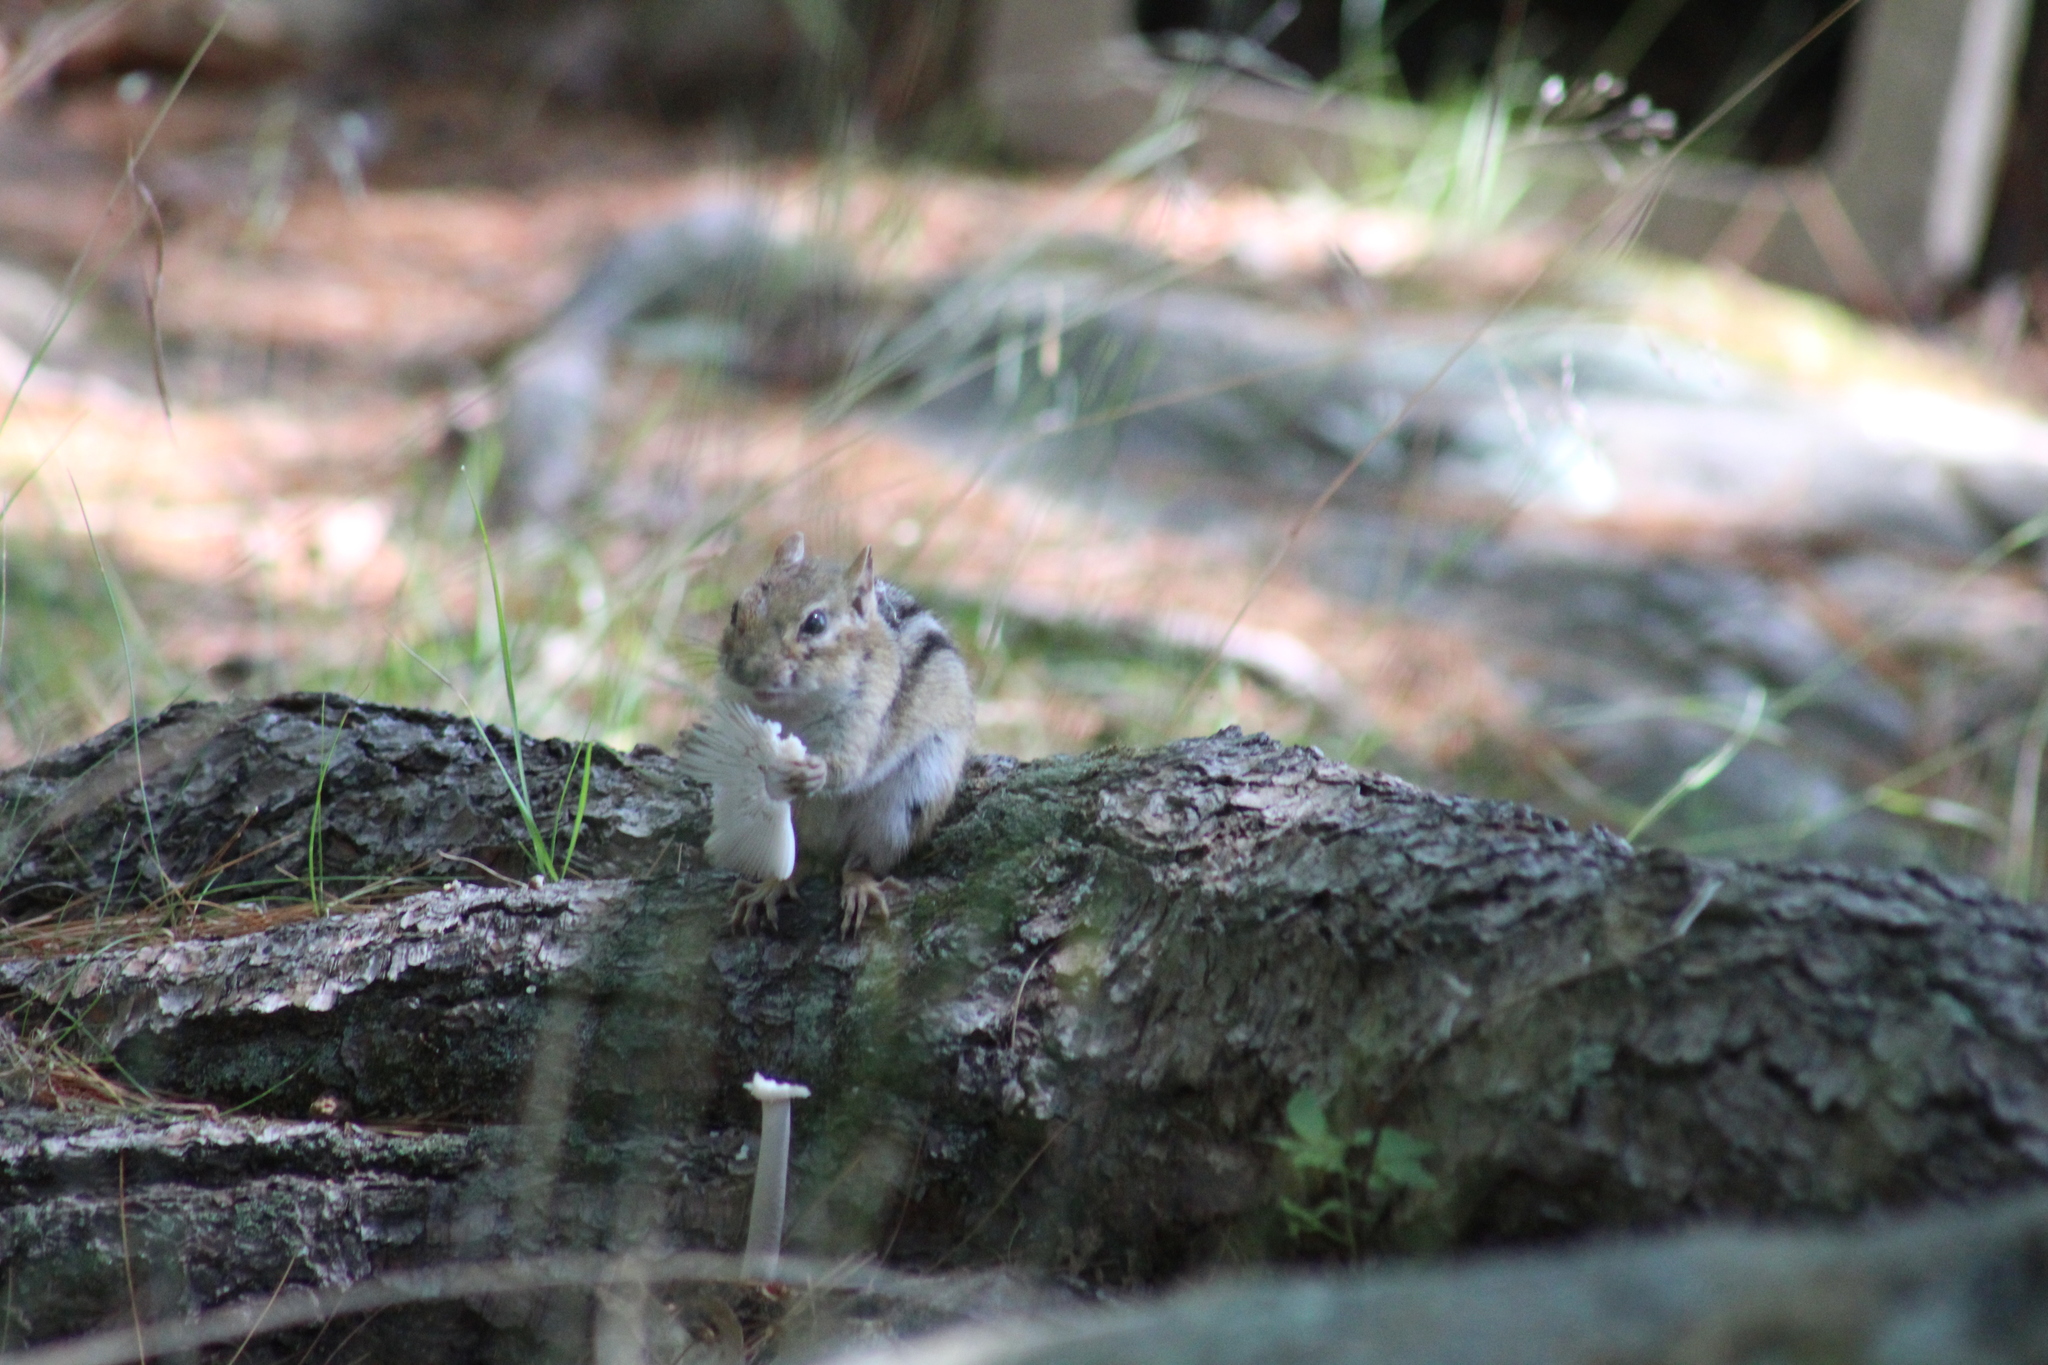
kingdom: Animalia
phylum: Chordata
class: Mammalia
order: Rodentia
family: Sciuridae
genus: Tamias
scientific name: Tamias striatus
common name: Eastern chipmunk
